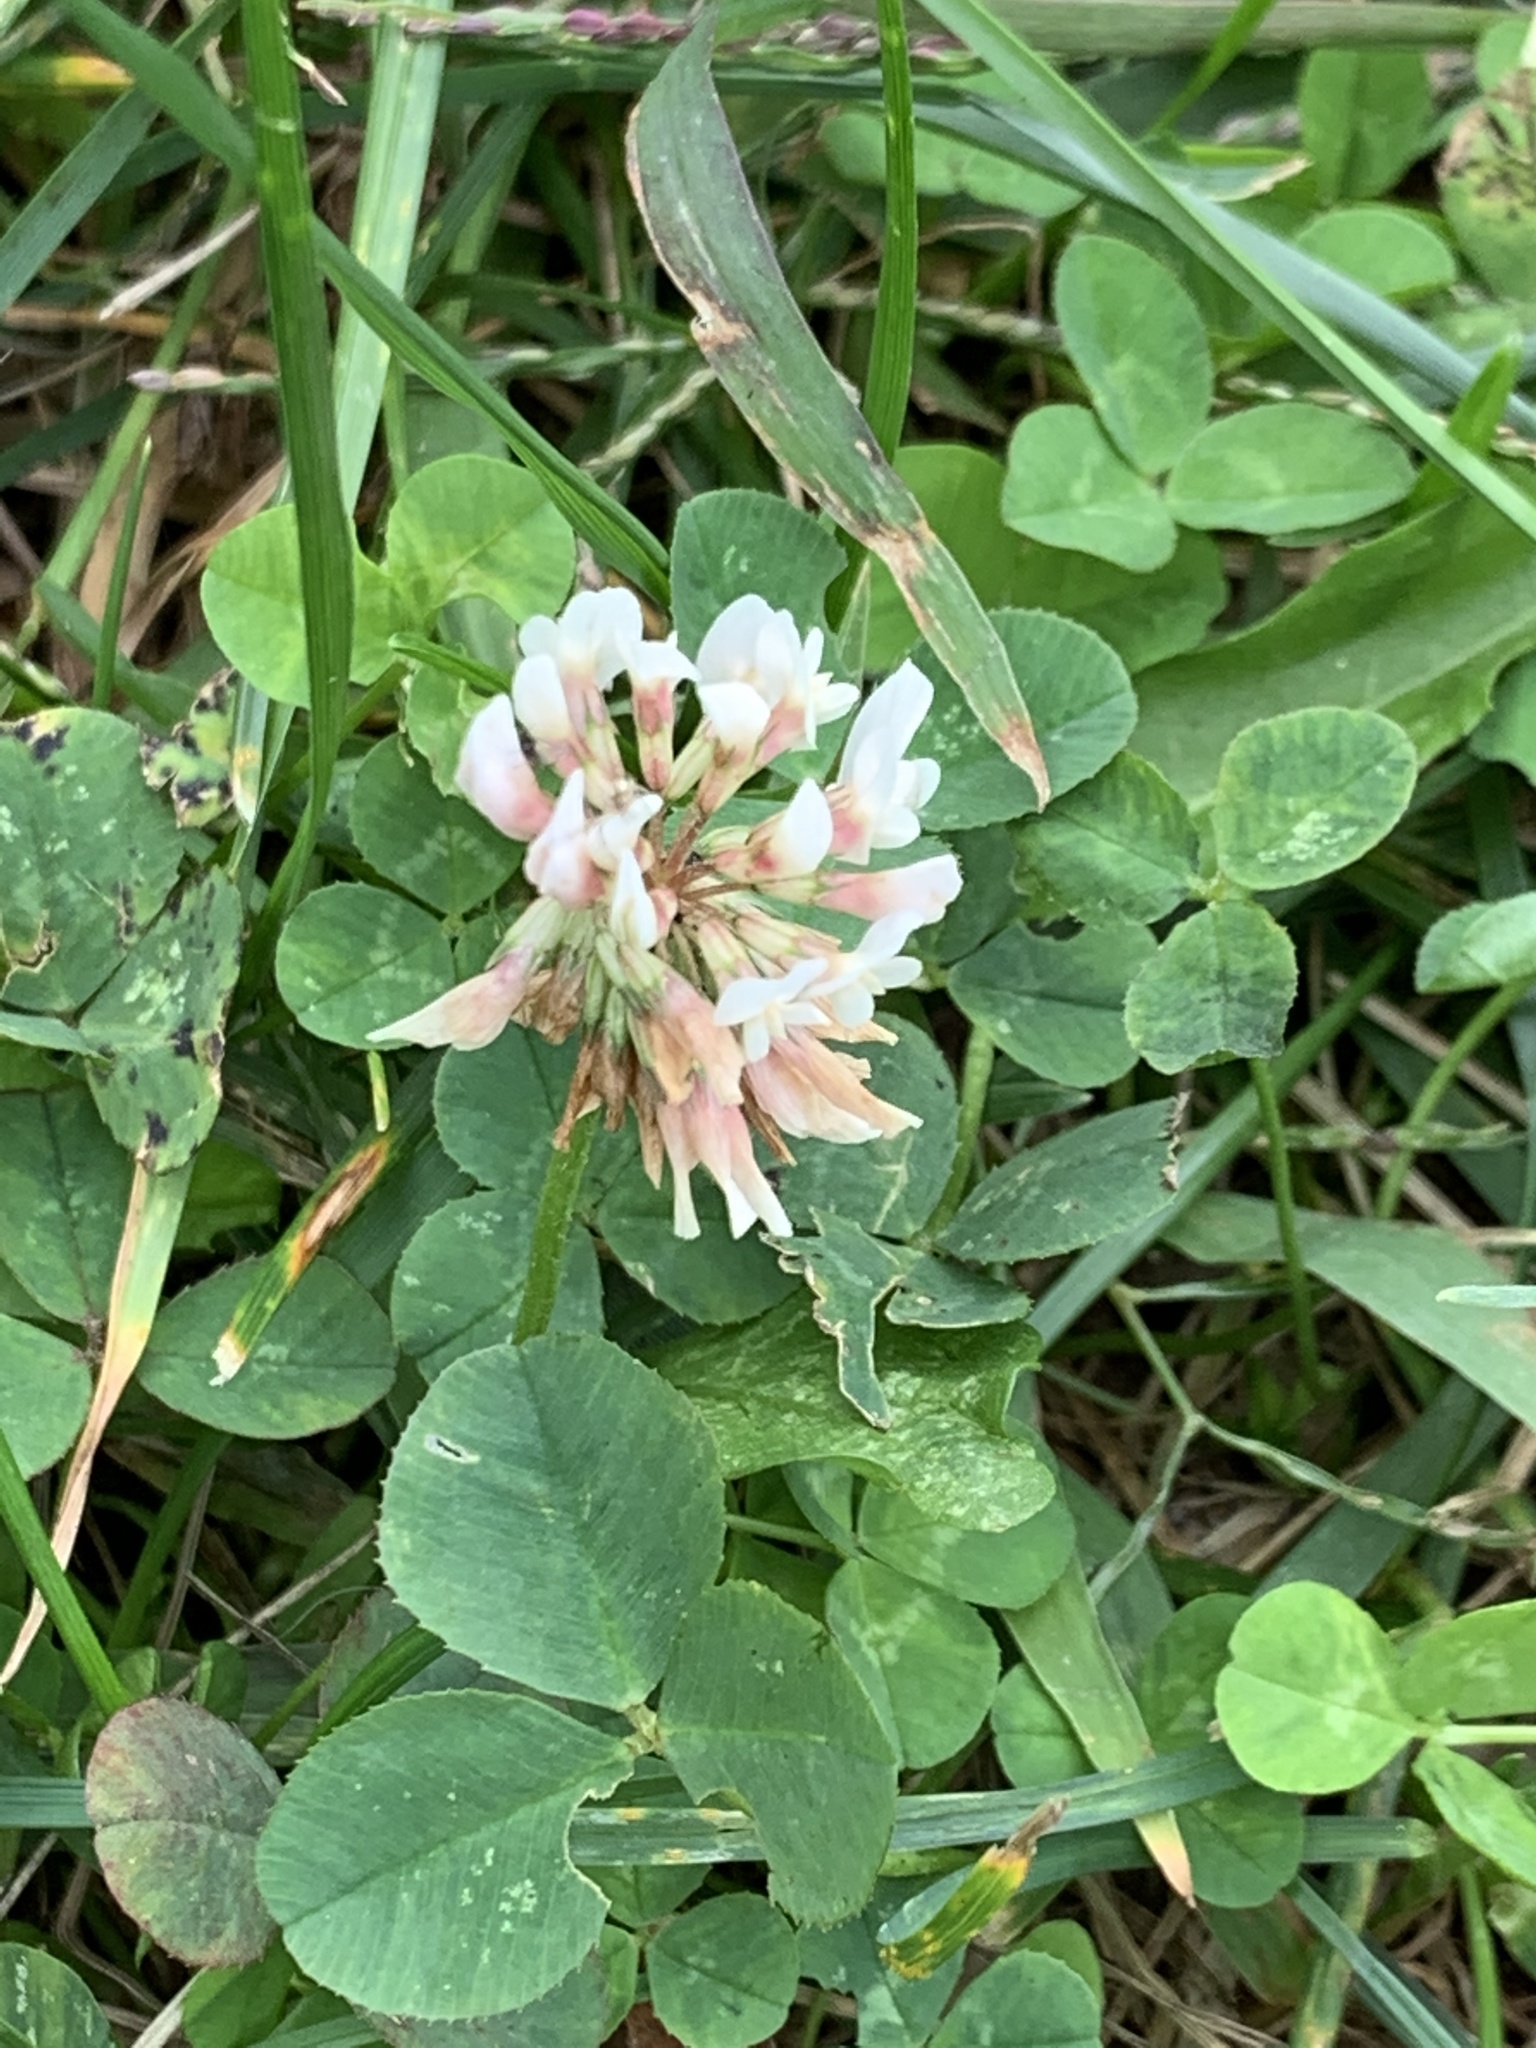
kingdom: Plantae
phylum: Tracheophyta
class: Magnoliopsida
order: Fabales
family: Fabaceae
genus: Trifolium
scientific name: Trifolium repens
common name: White clover
